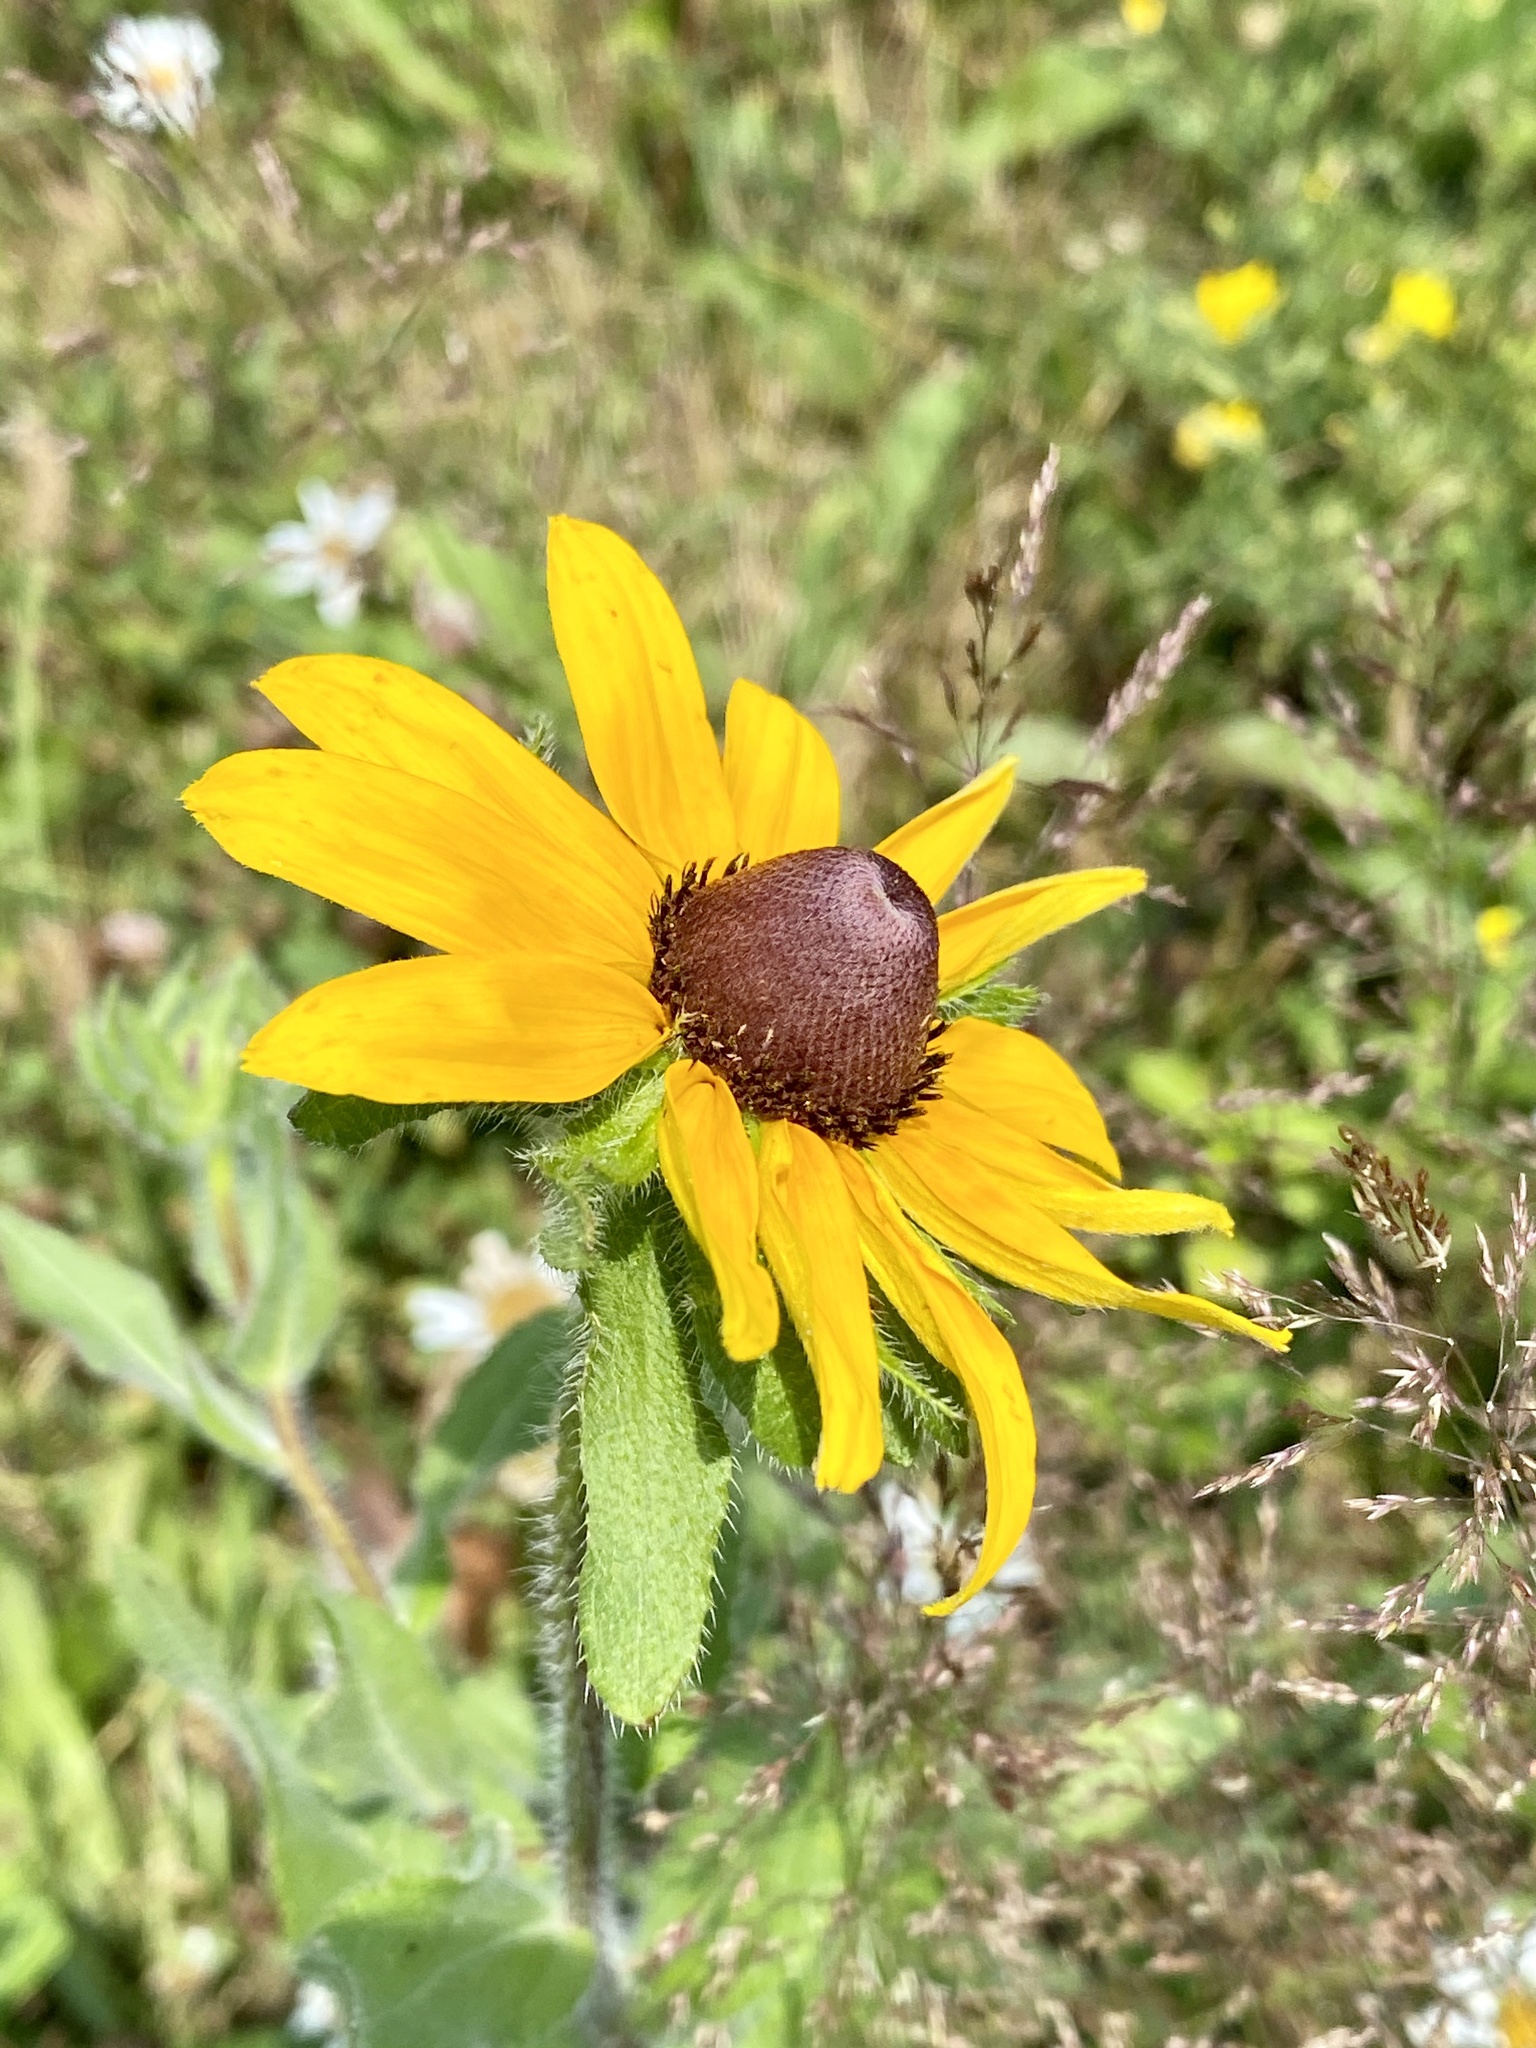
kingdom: Plantae
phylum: Tracheophyta
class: Magnoliopsida
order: Asterales
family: Asteraceae
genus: Rudbeckia
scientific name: Rudbeckia hirta
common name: Black-eyed-susan
